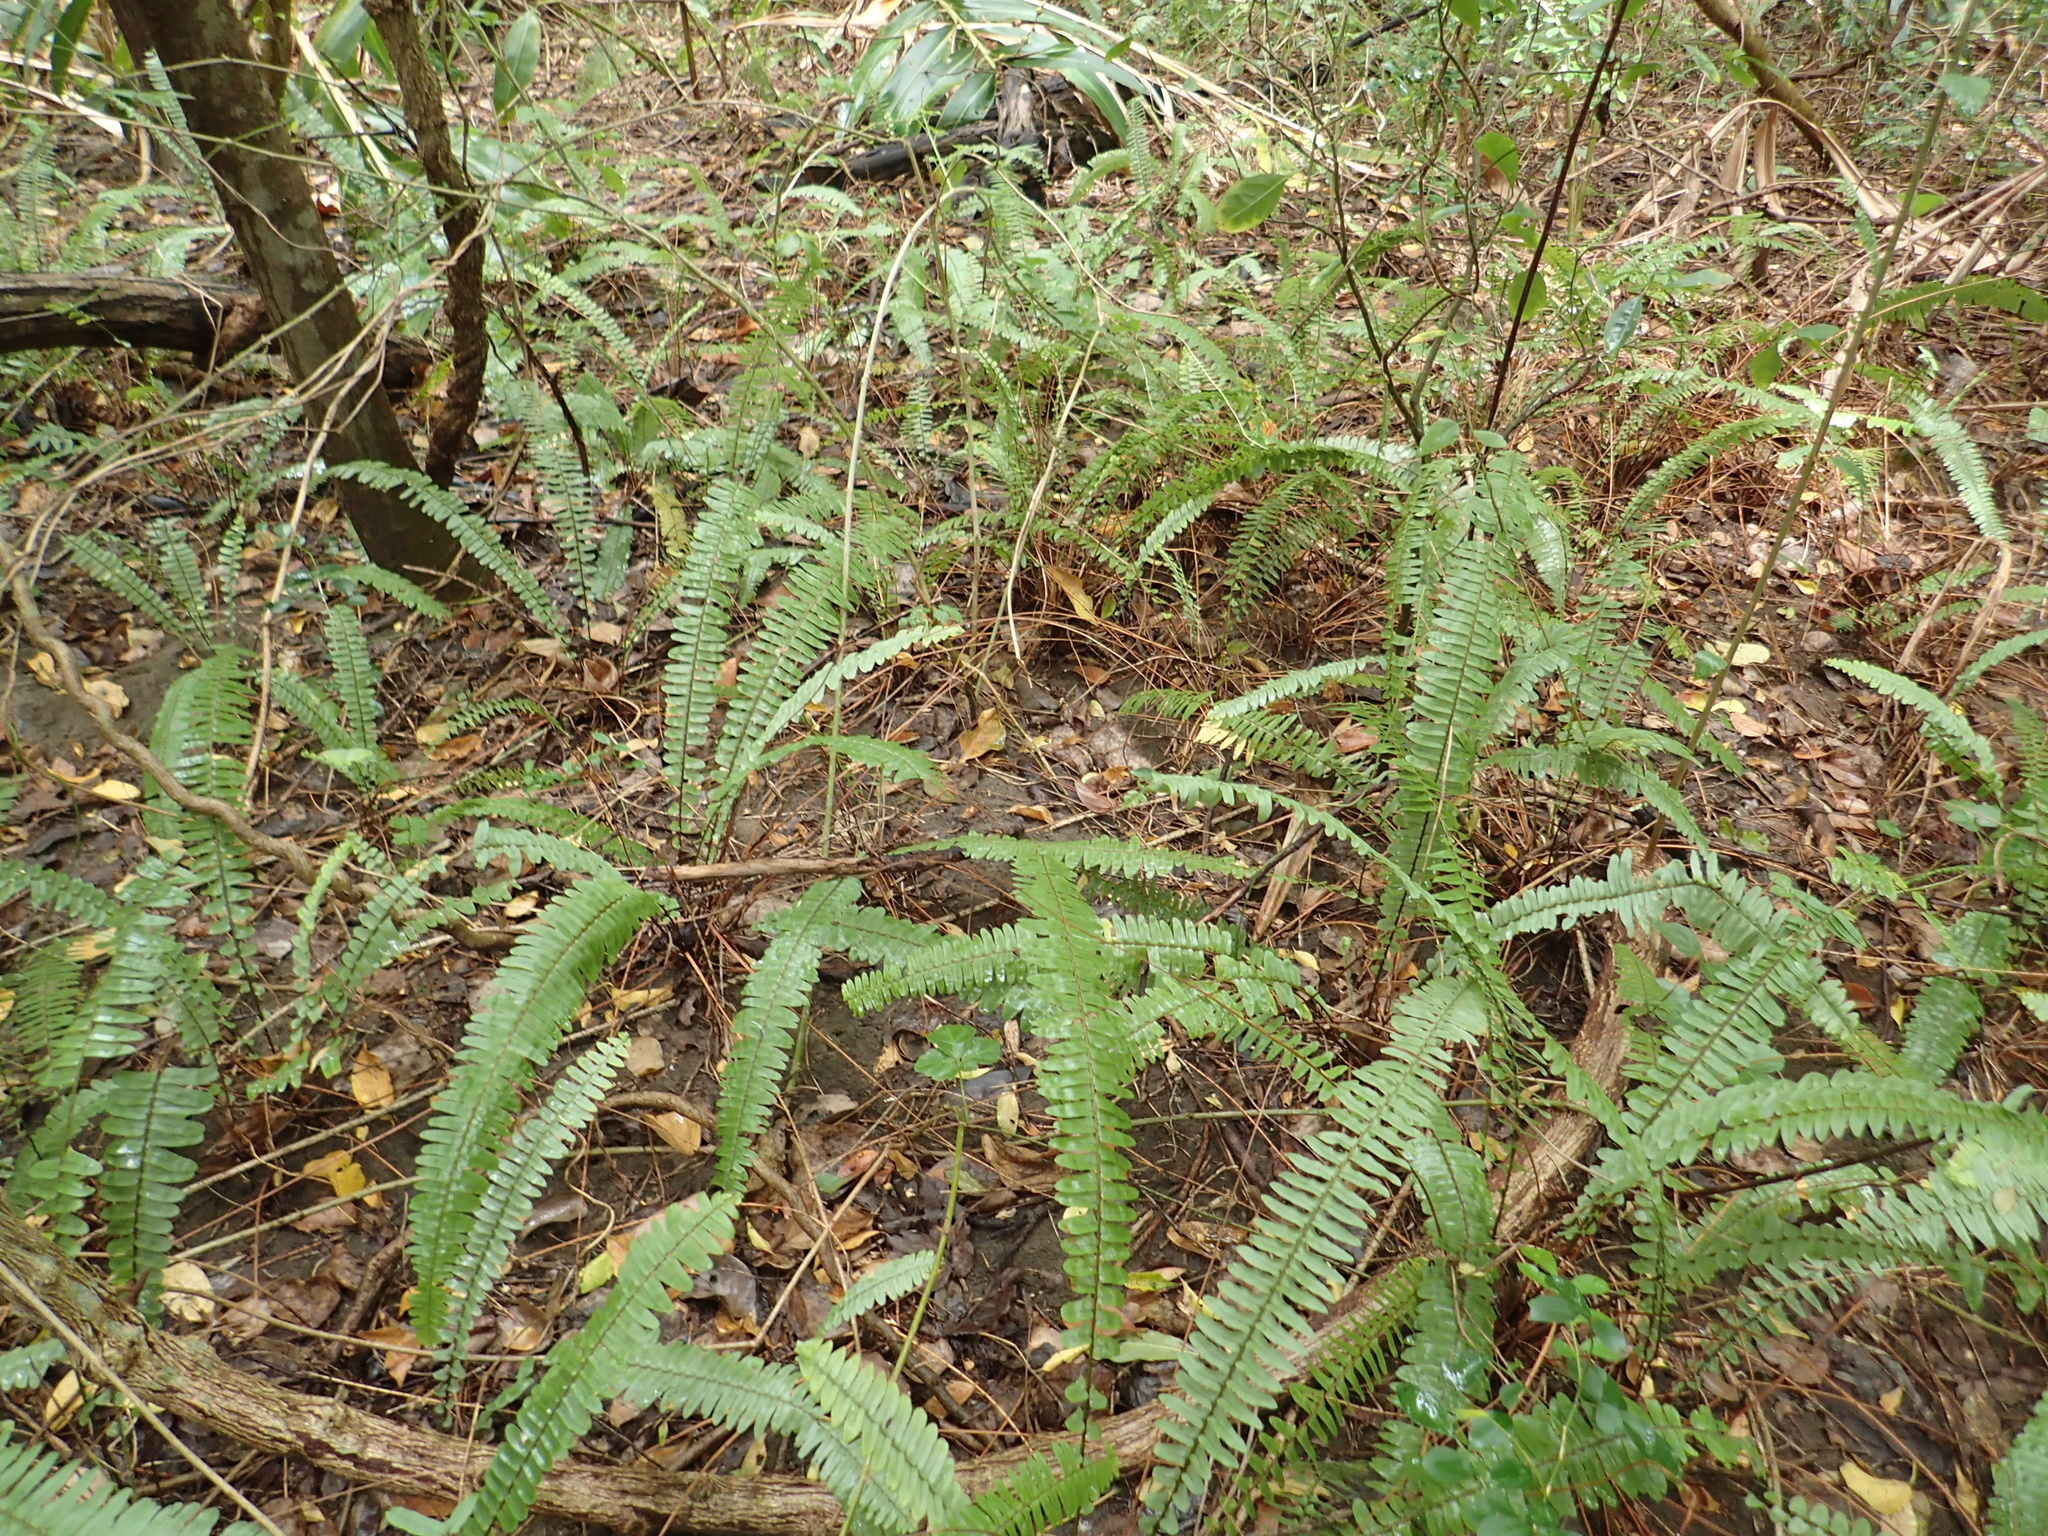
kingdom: Plantae
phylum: Tracheophyta
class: Polypodiopsida
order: Polypodiales
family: Nephrolepidaceae
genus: Nephrolepis
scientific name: Nephrolepis cordifolia
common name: Narrow swordfern
